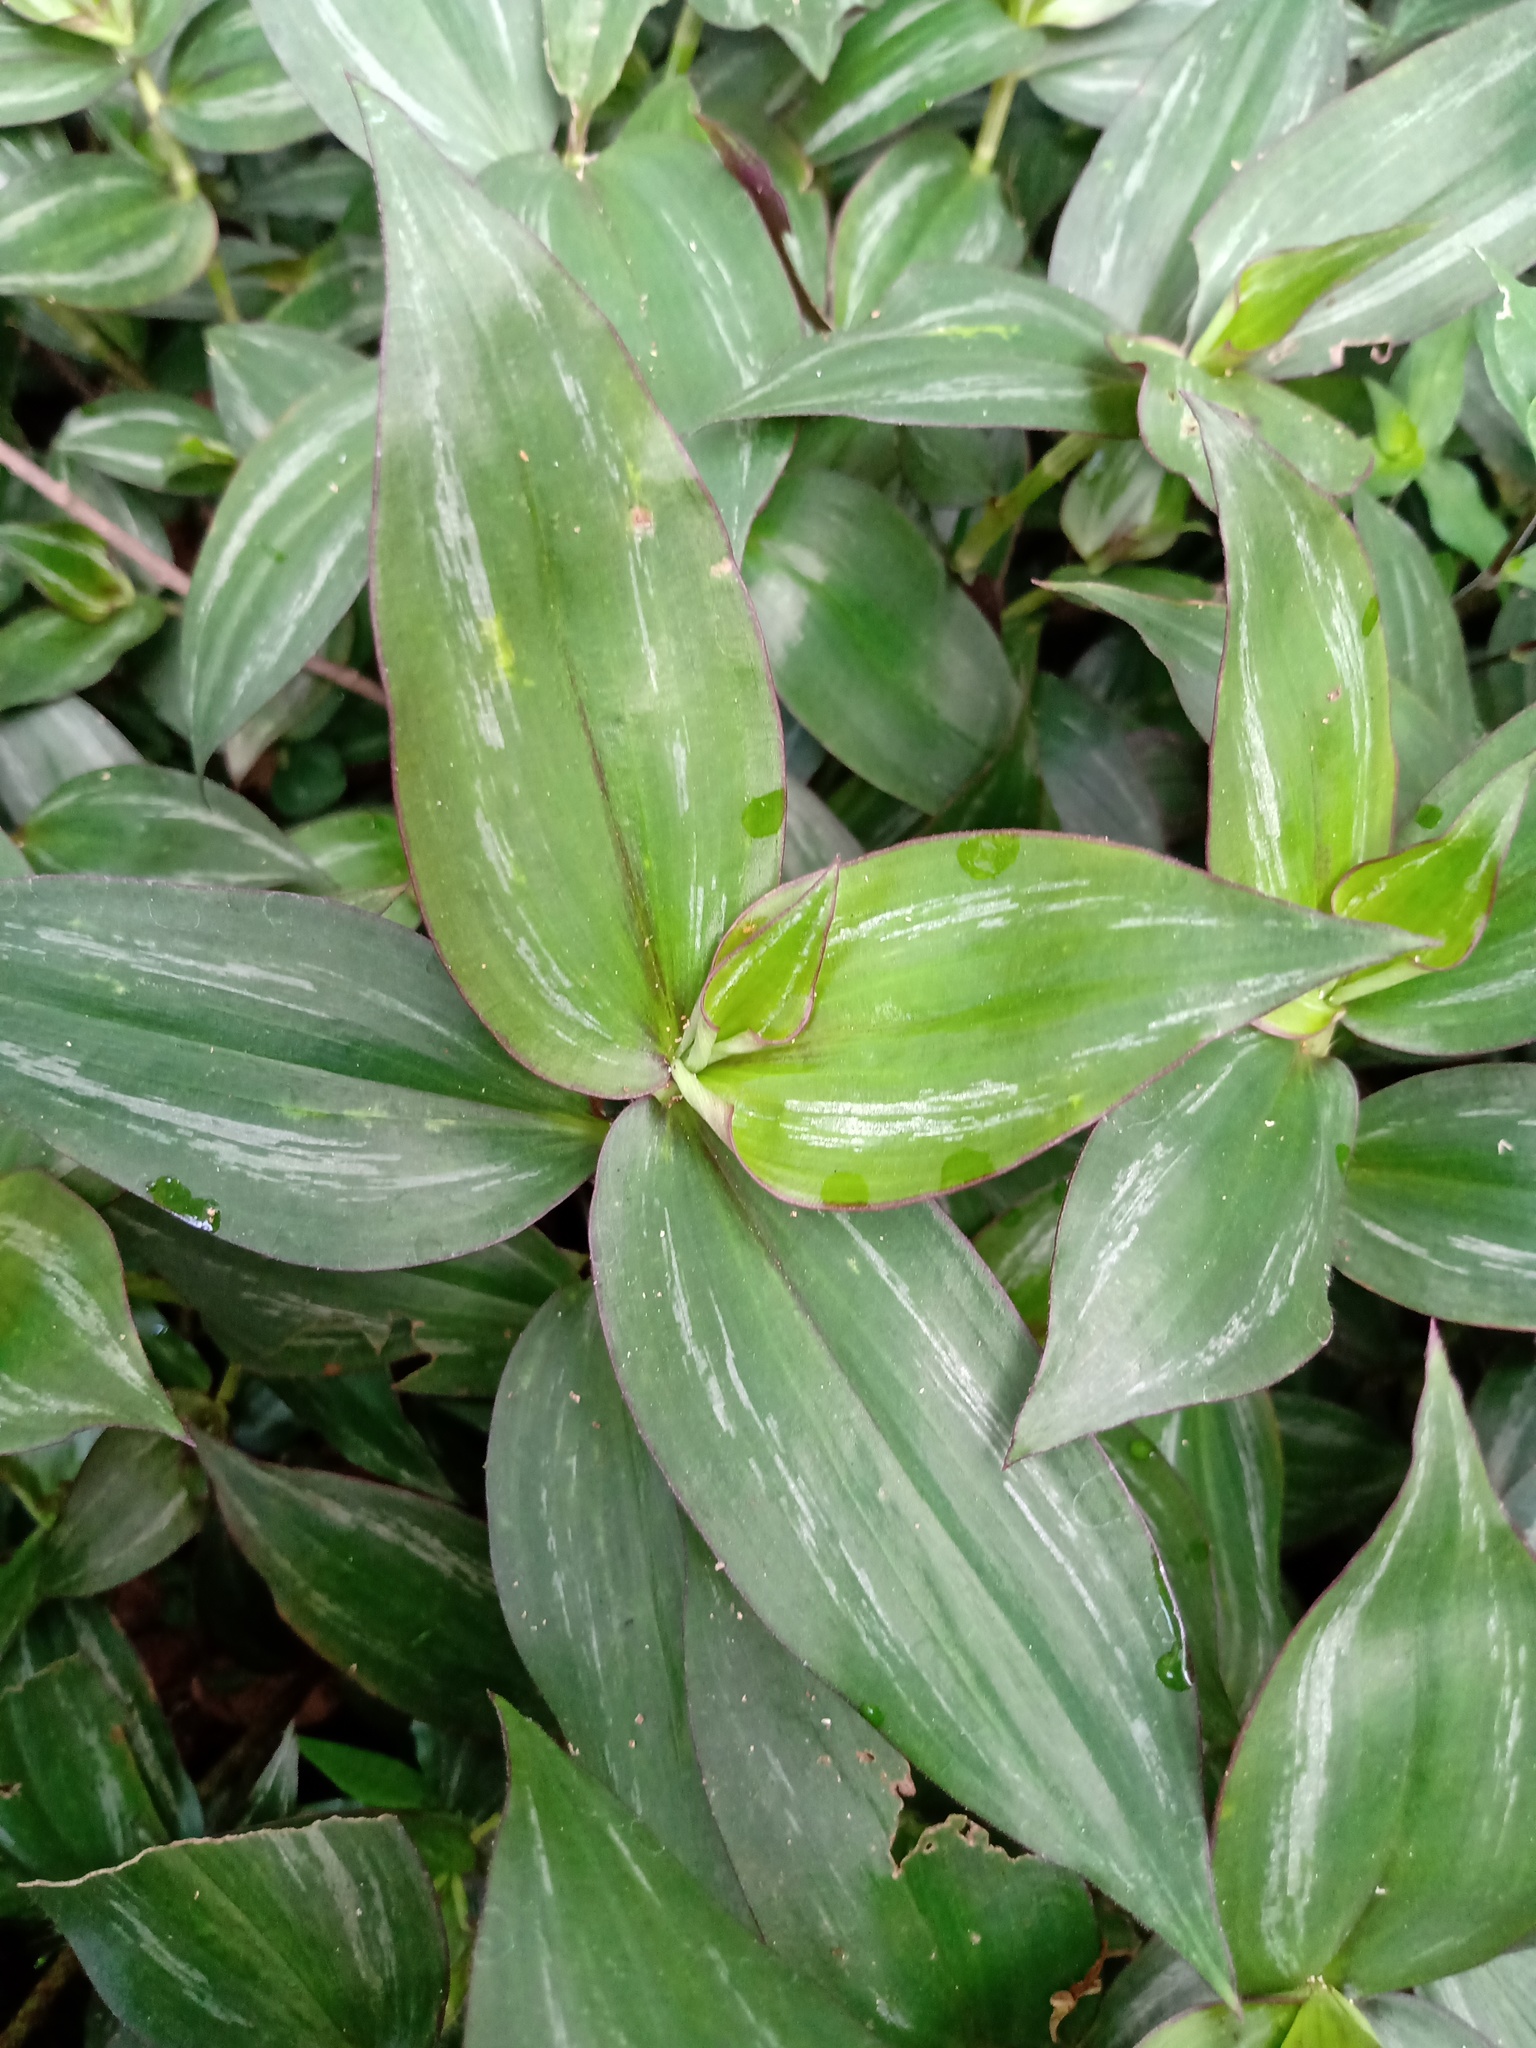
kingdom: Plantae
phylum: Tracheophyta
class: Liliopsida
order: Commelinales
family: Commelinaceae
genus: Tradescantia
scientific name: Tradescantia zebrina
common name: Inchplant
